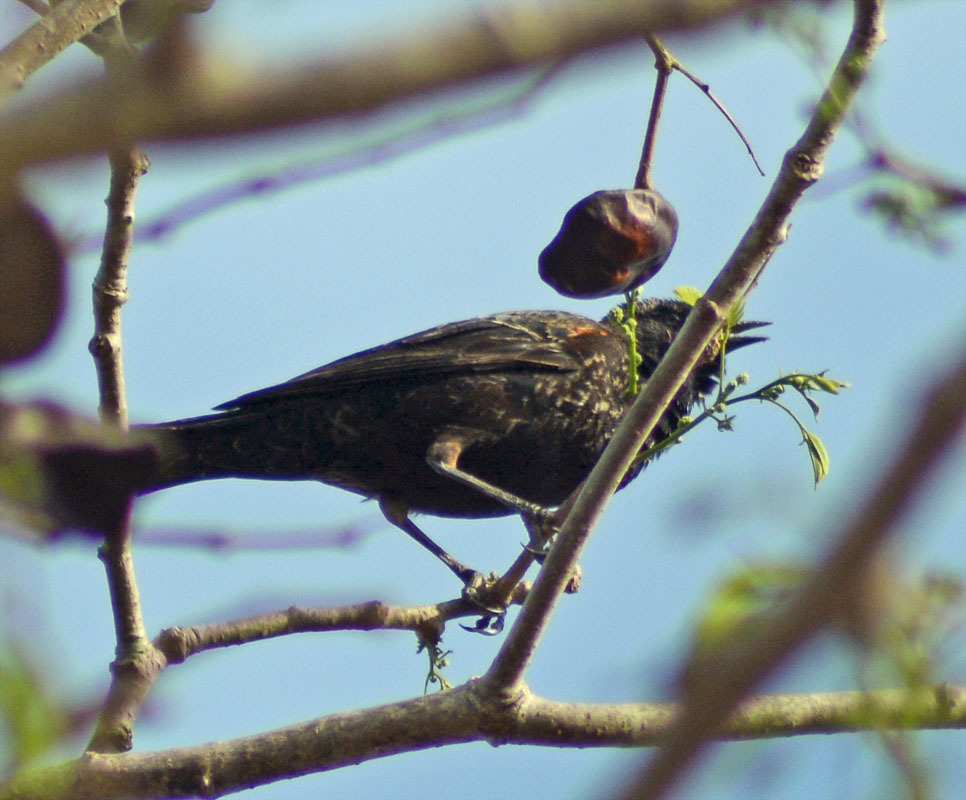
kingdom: Animalia
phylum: Chordata
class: Aves
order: Passeriformes
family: Icteridae
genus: Agelaius
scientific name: Agelaius phoeniceus
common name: Red-winged blackbird
